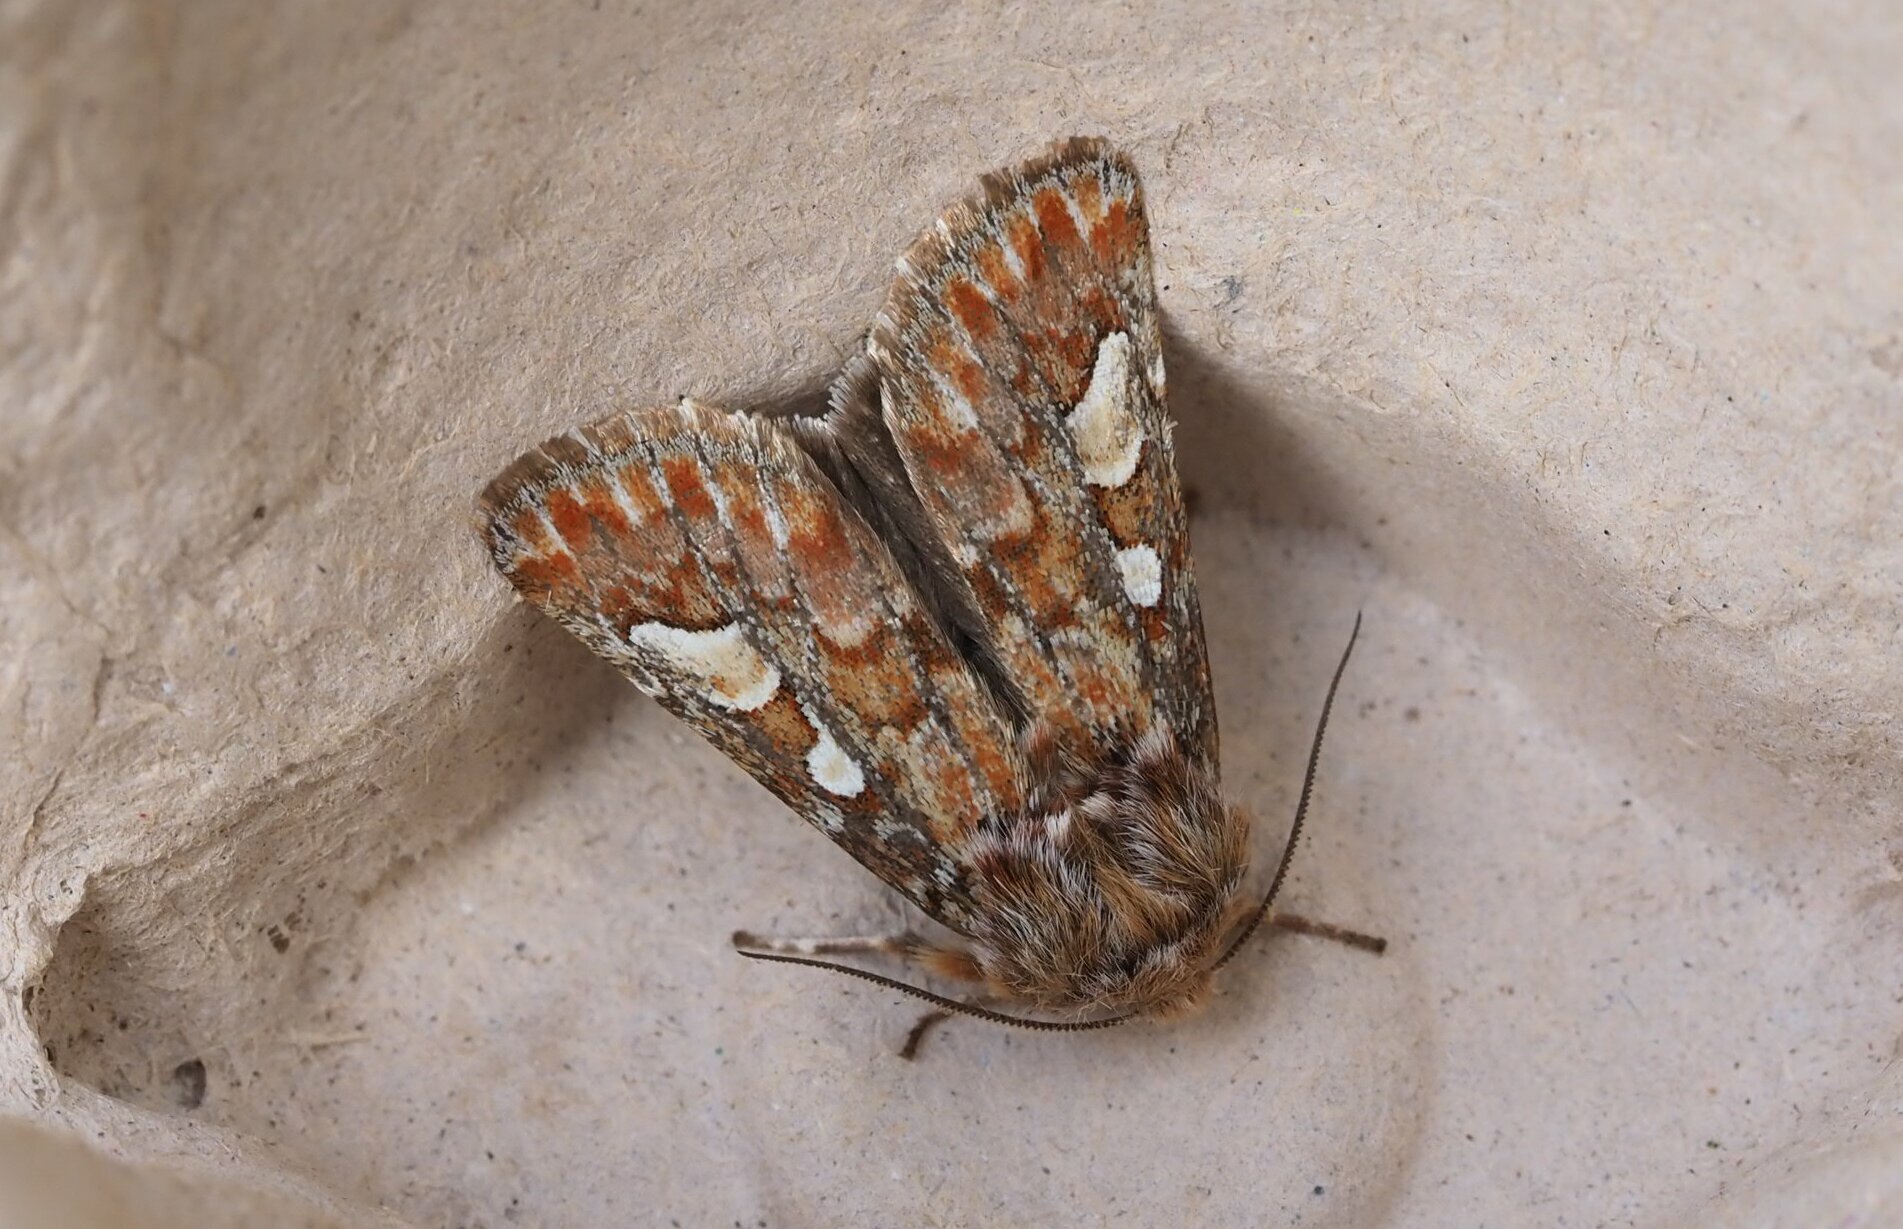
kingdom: Animalia
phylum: Arthropoda
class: Insecta
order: Lepidoptera
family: Noctuidae
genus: Panolis
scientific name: Panolis flammea
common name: Pine beauty
